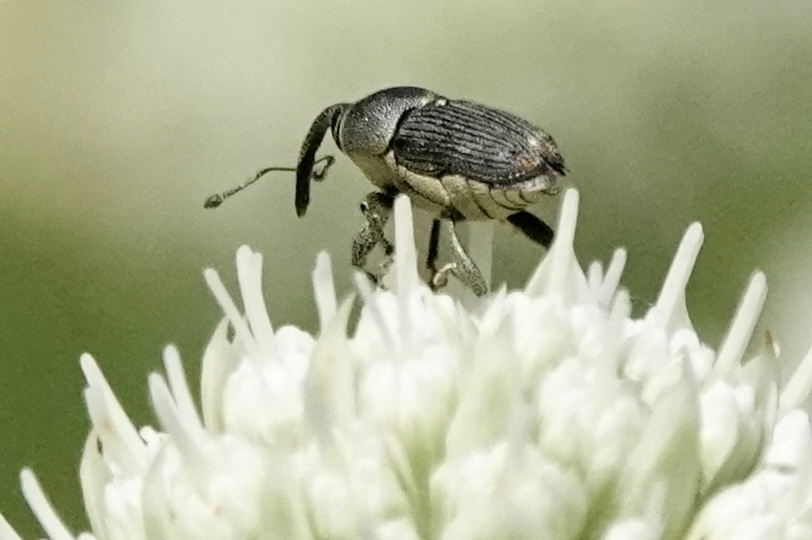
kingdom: Animalia
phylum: Arthropoda
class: Insecta
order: Coleoptera
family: Curculionidae
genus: Odontocorynus
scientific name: Odontocorynus salebrosus
